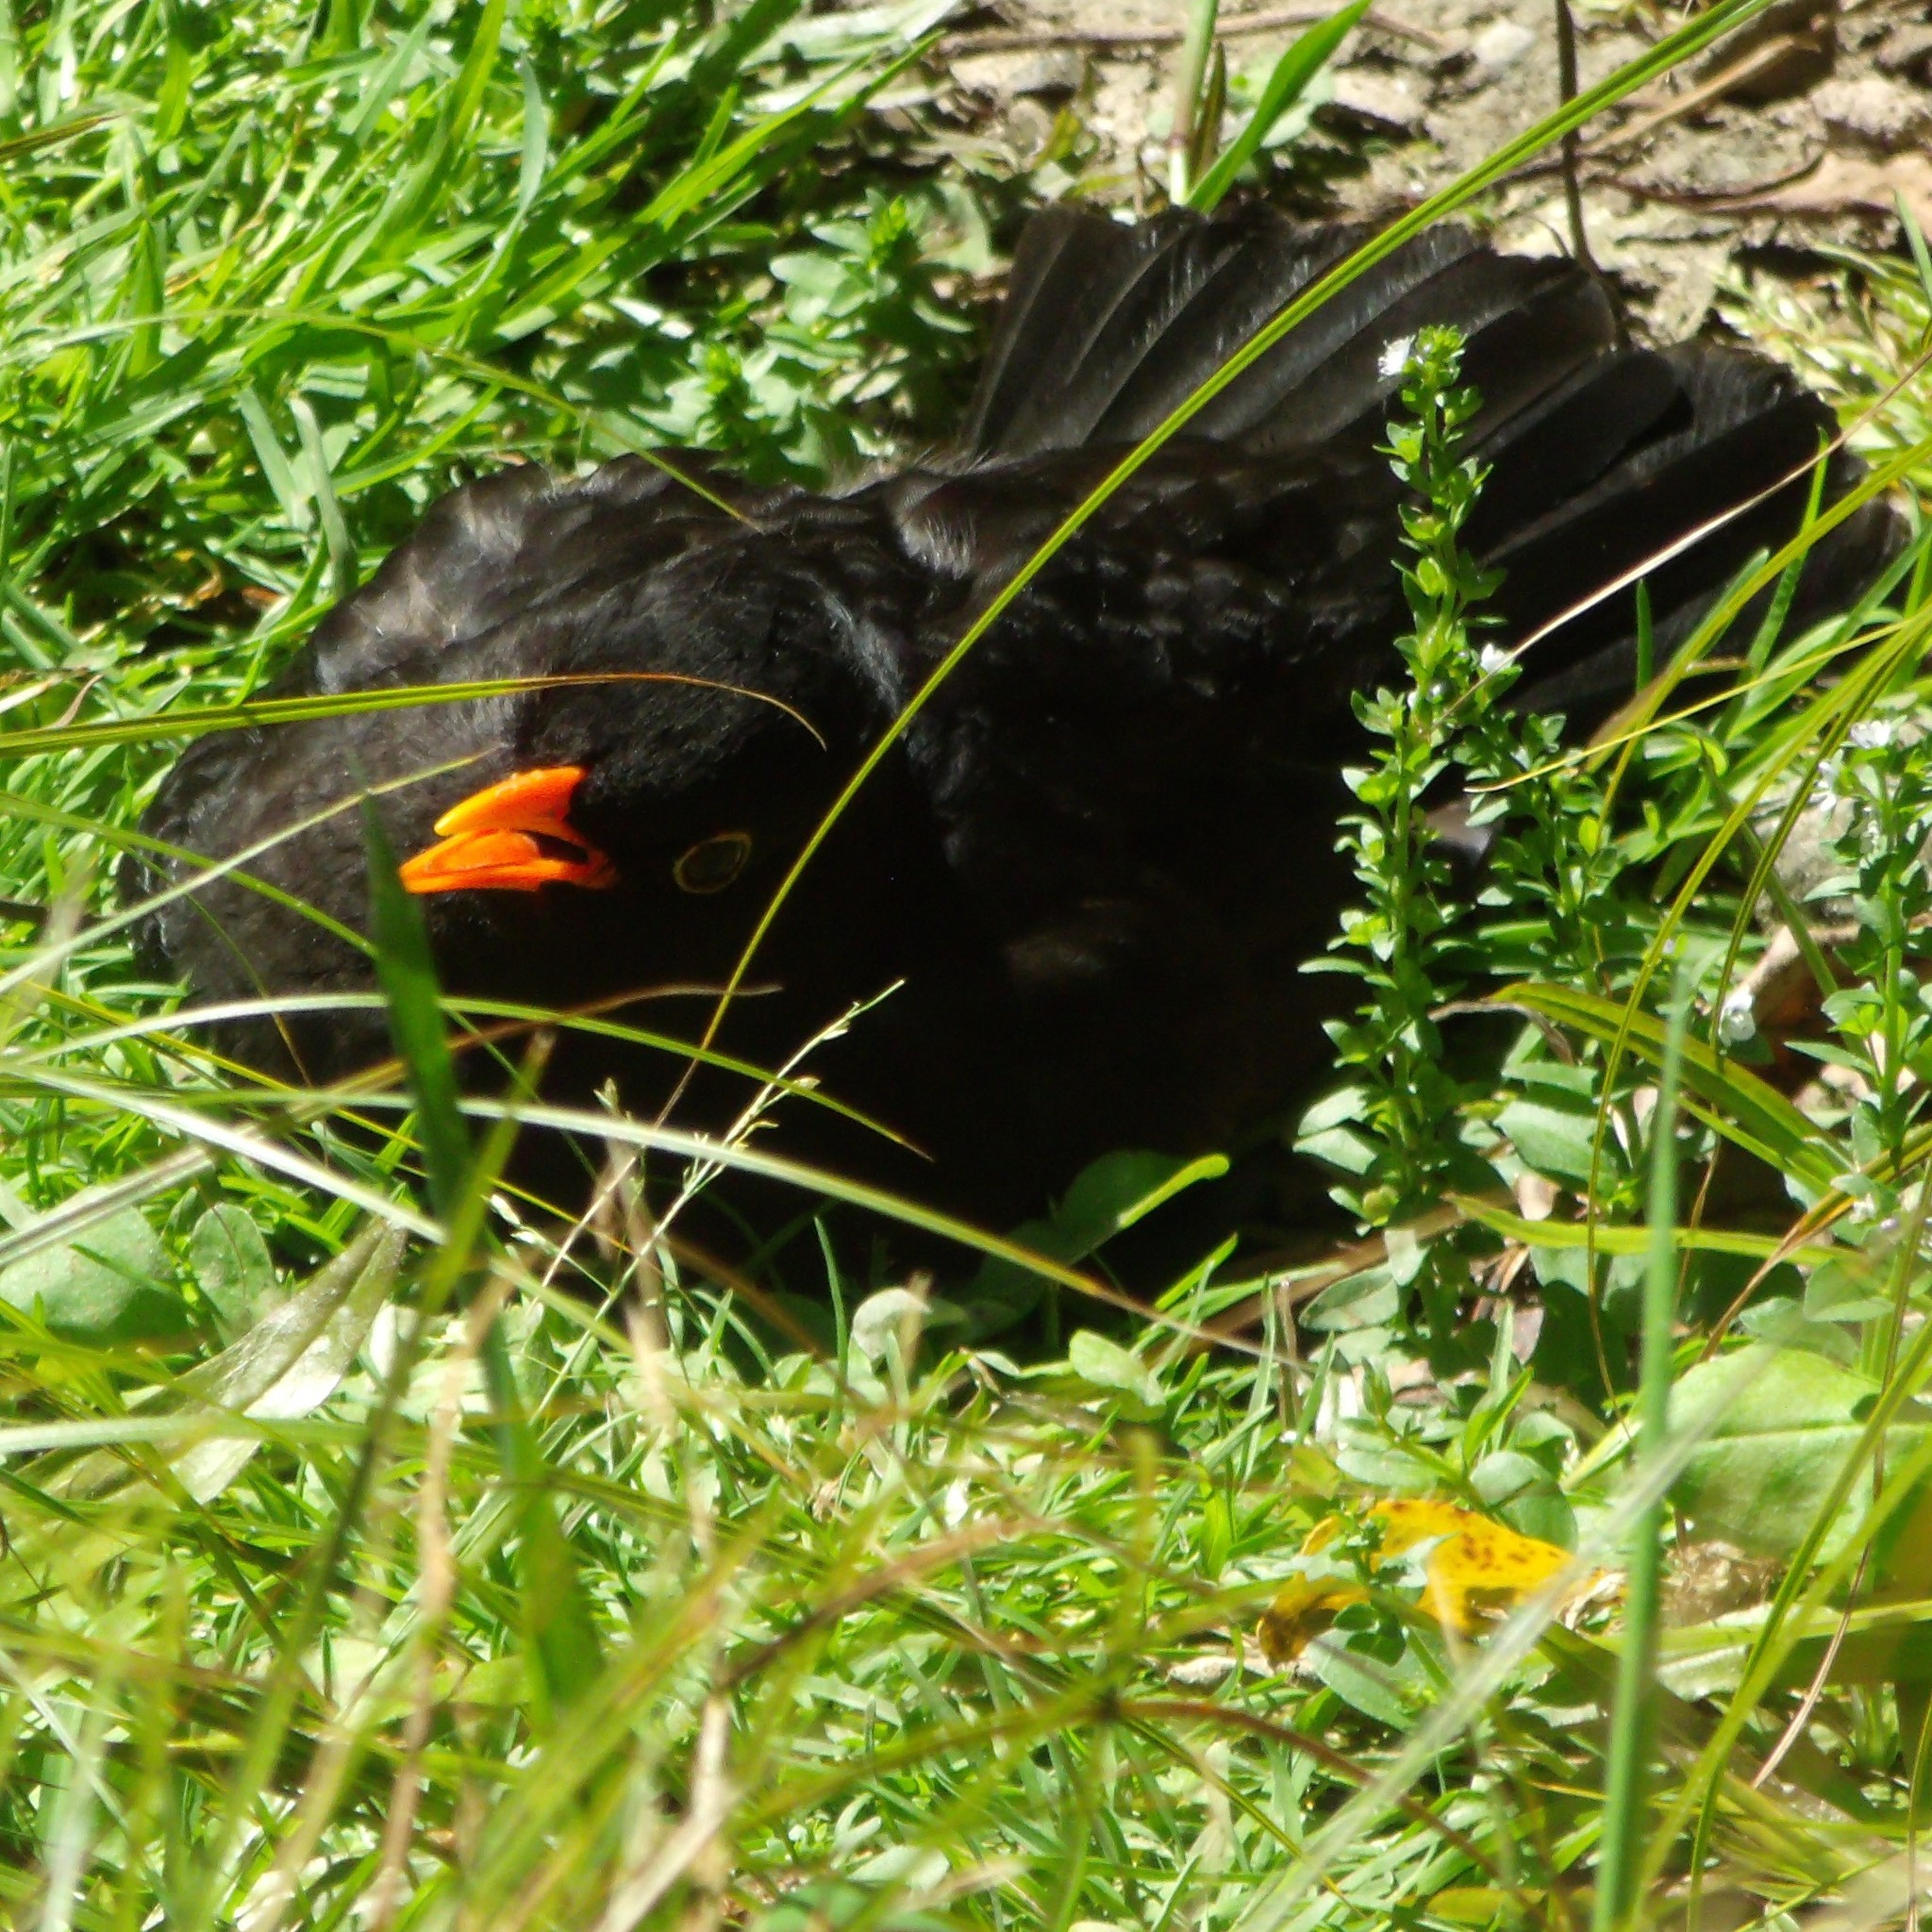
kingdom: Animalia
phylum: Chordata
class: Aves
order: Passeriformes
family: Turdidae
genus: Turdus
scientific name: Turdus merula
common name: Common blackbird
